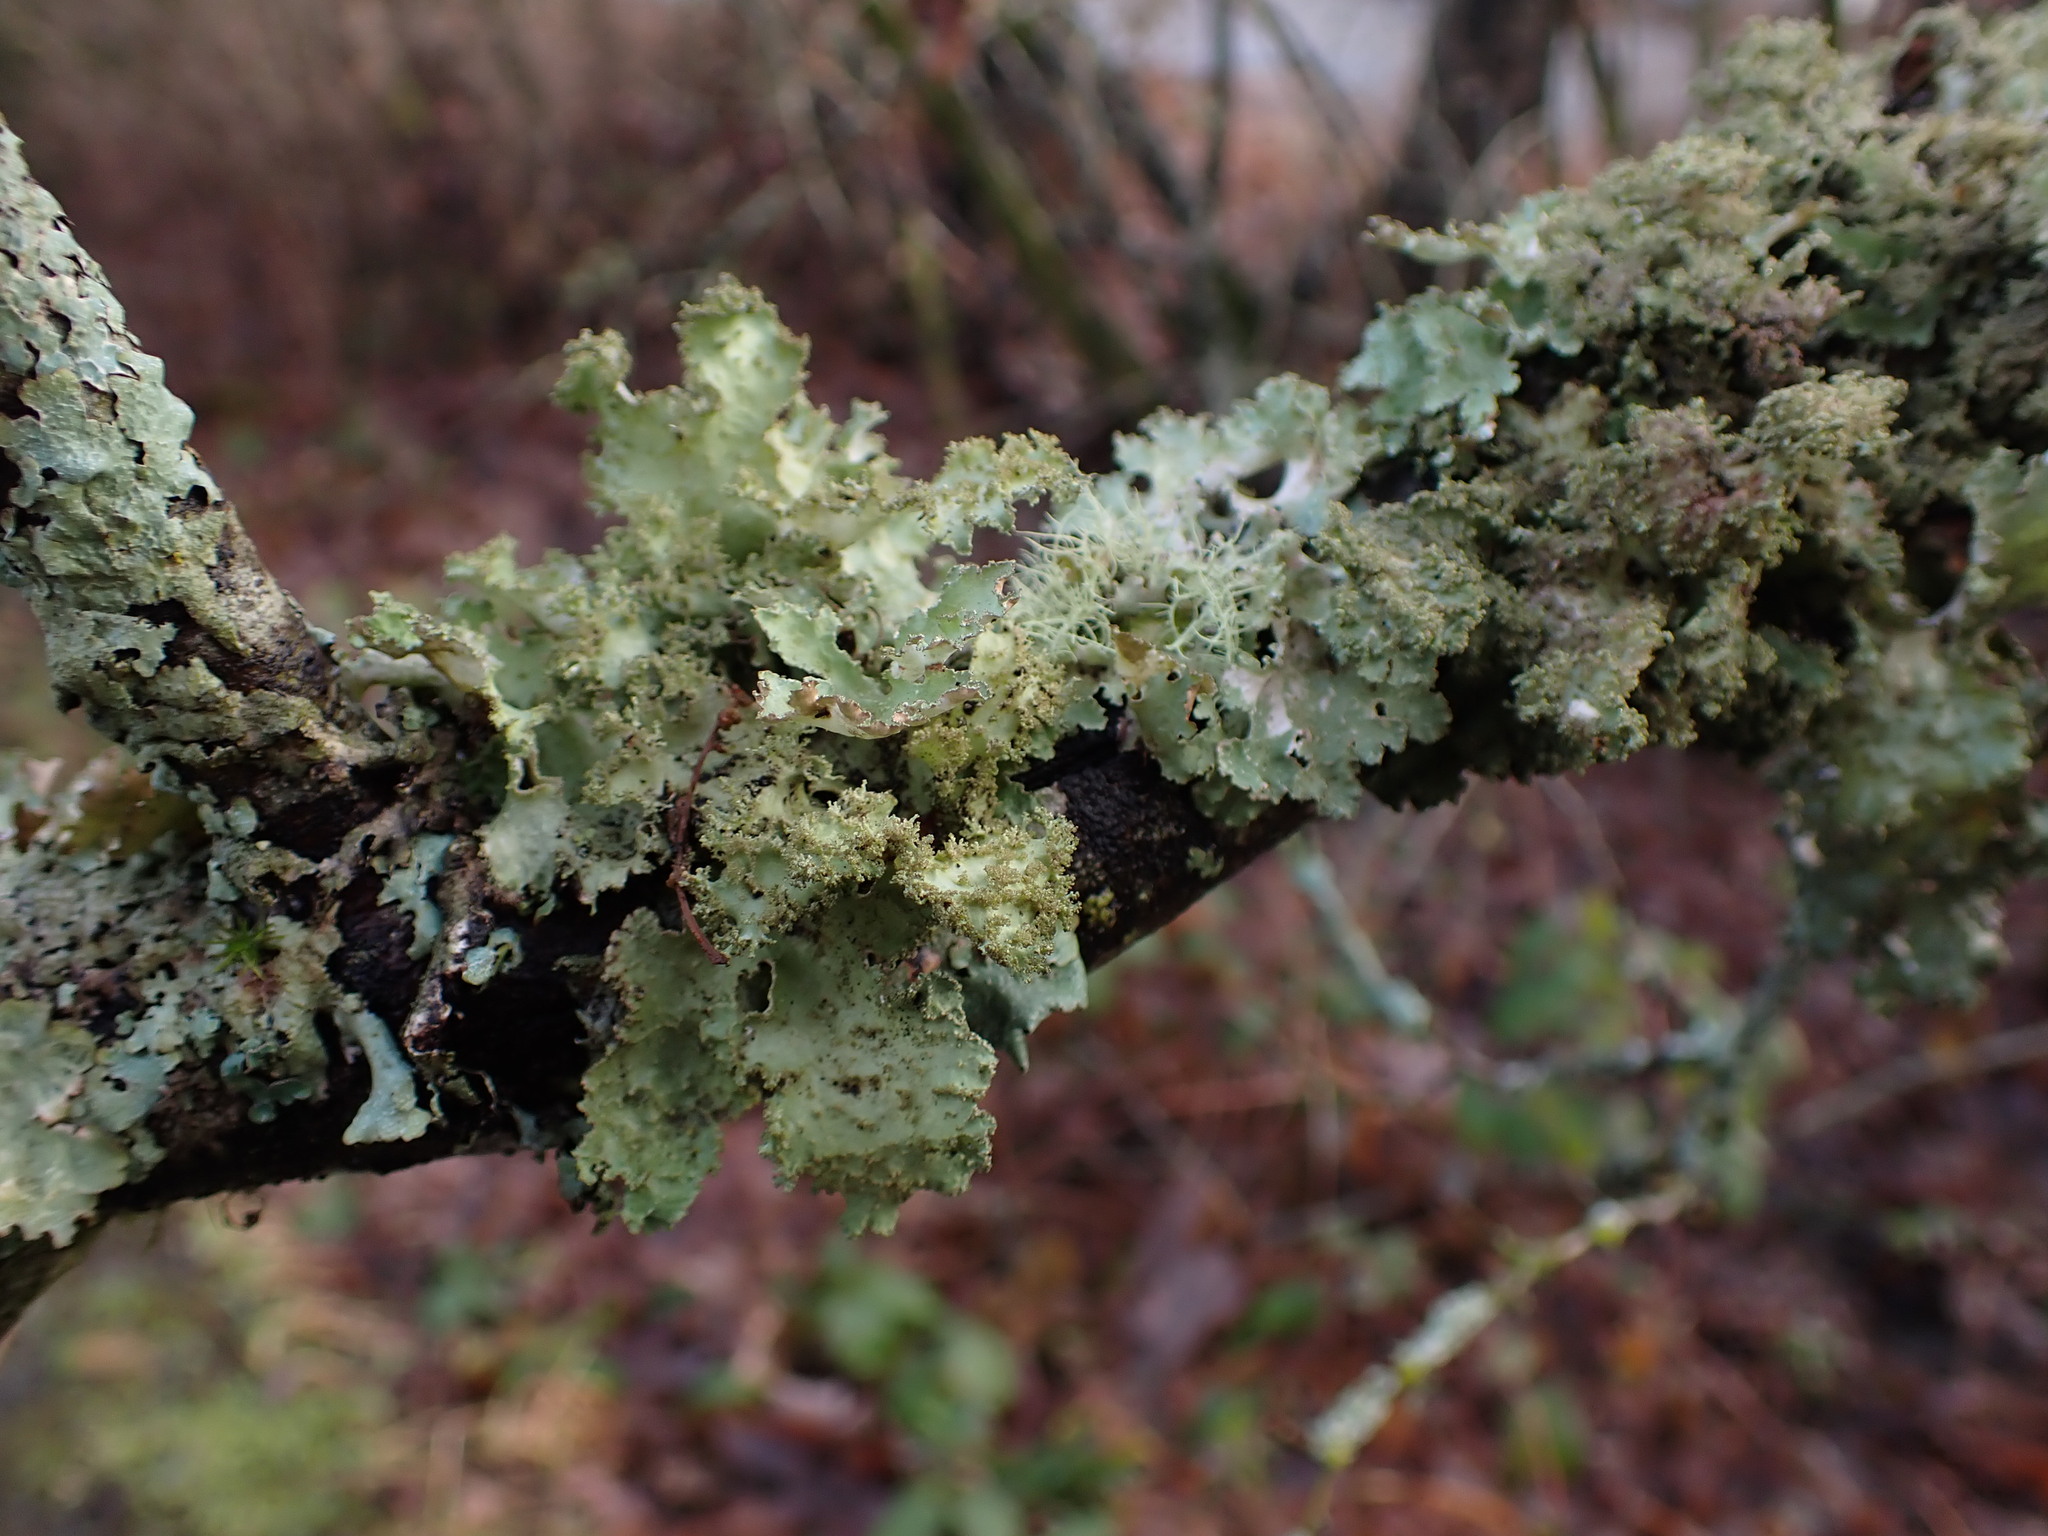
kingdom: Fungi
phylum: Ascomycota
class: Lecanoromycetes
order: Lecanorales
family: Parmeliaceae
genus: Platismatia
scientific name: Platismatia glauca
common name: Varied rag lichen
